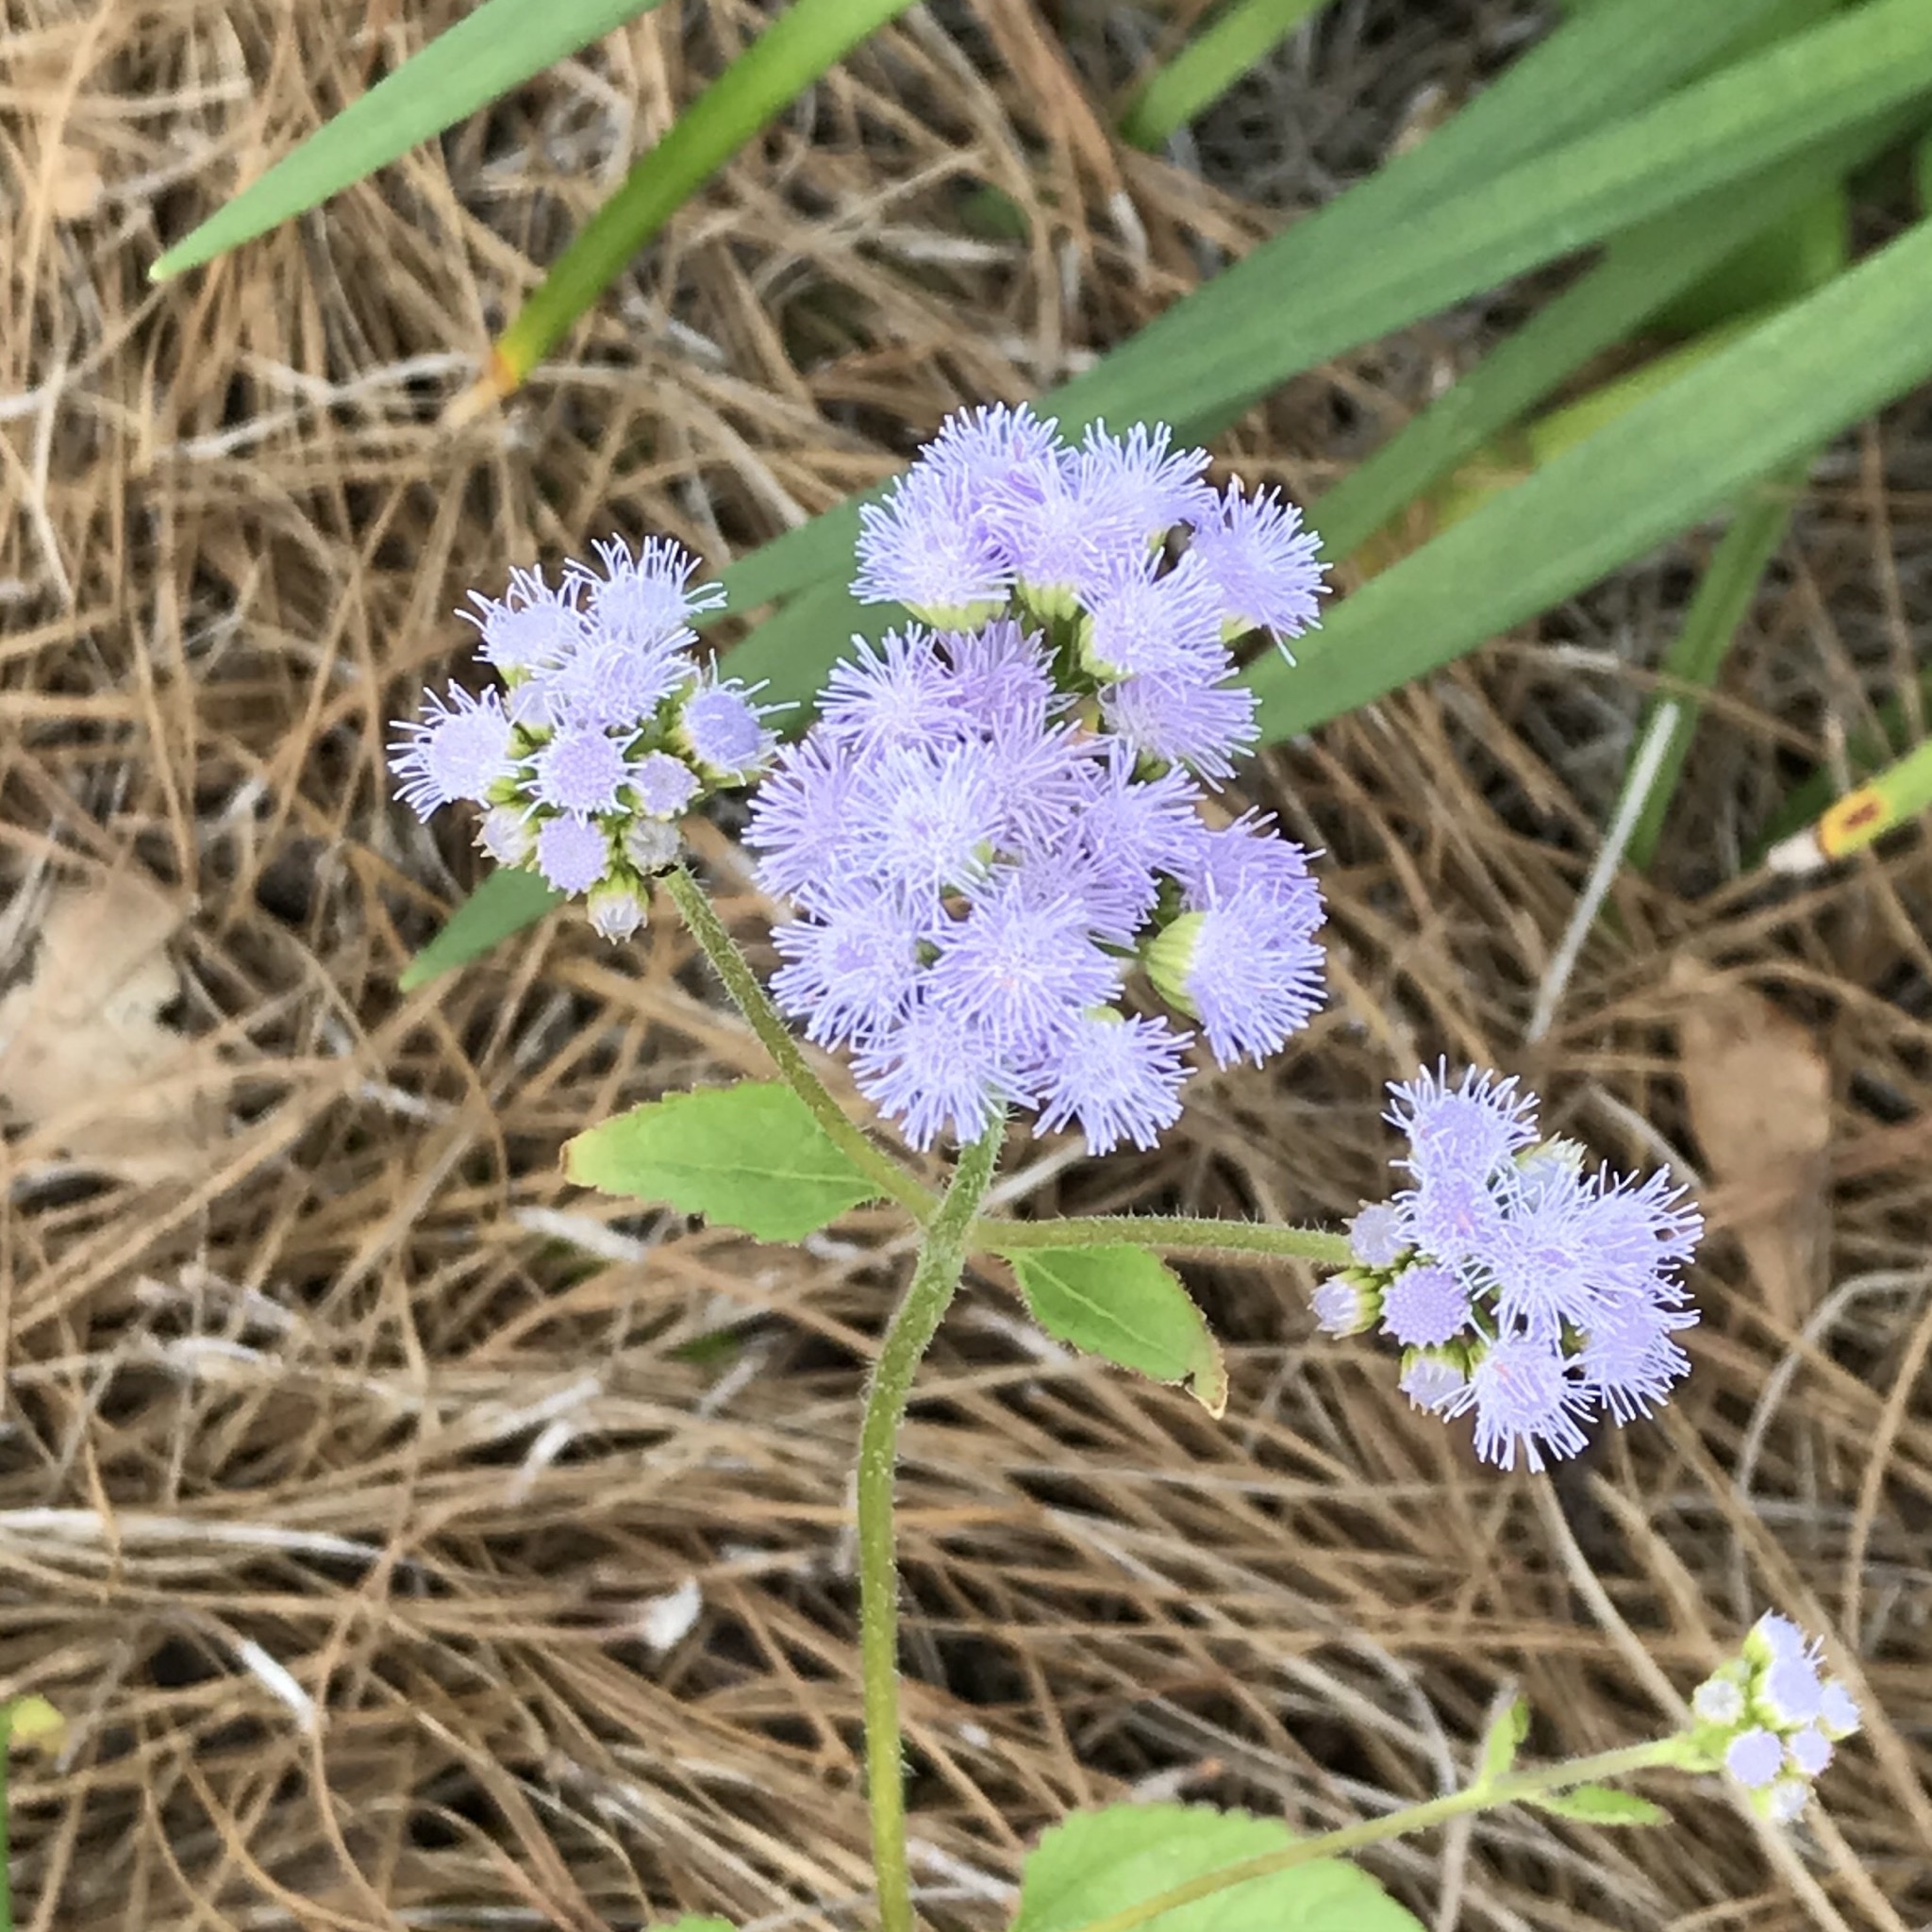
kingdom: Plantae
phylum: Tracheophyta
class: Magnoliopsida
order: Asterales
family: Asteraceae
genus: Conoclinium
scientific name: Conoclinium coelestinum
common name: Blue mistflower
